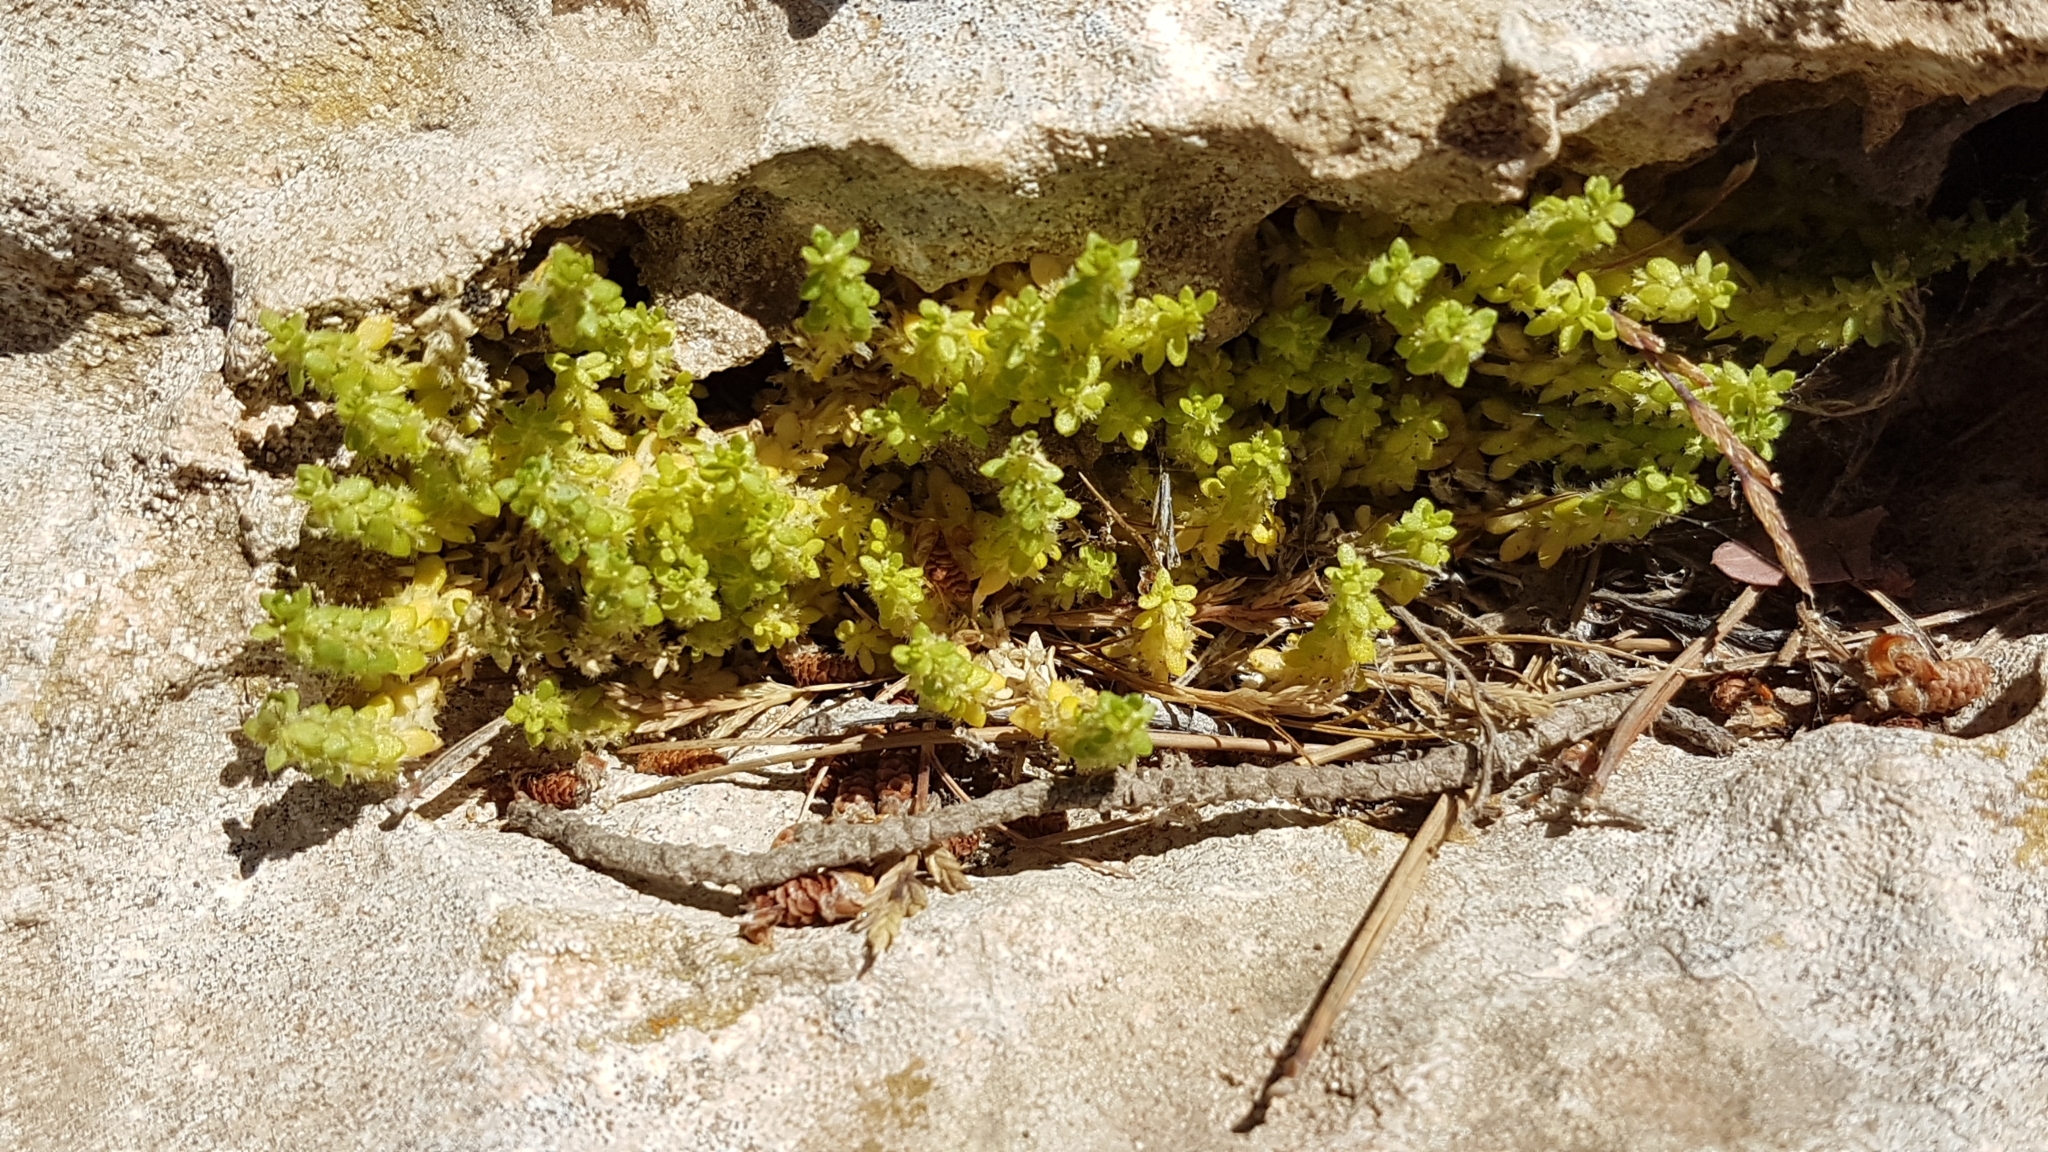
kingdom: Plantae
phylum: Tracheophyta
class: Magnoliopsida
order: Gentianales
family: Rubiaceae
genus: Valantia
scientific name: Valantia muralis
